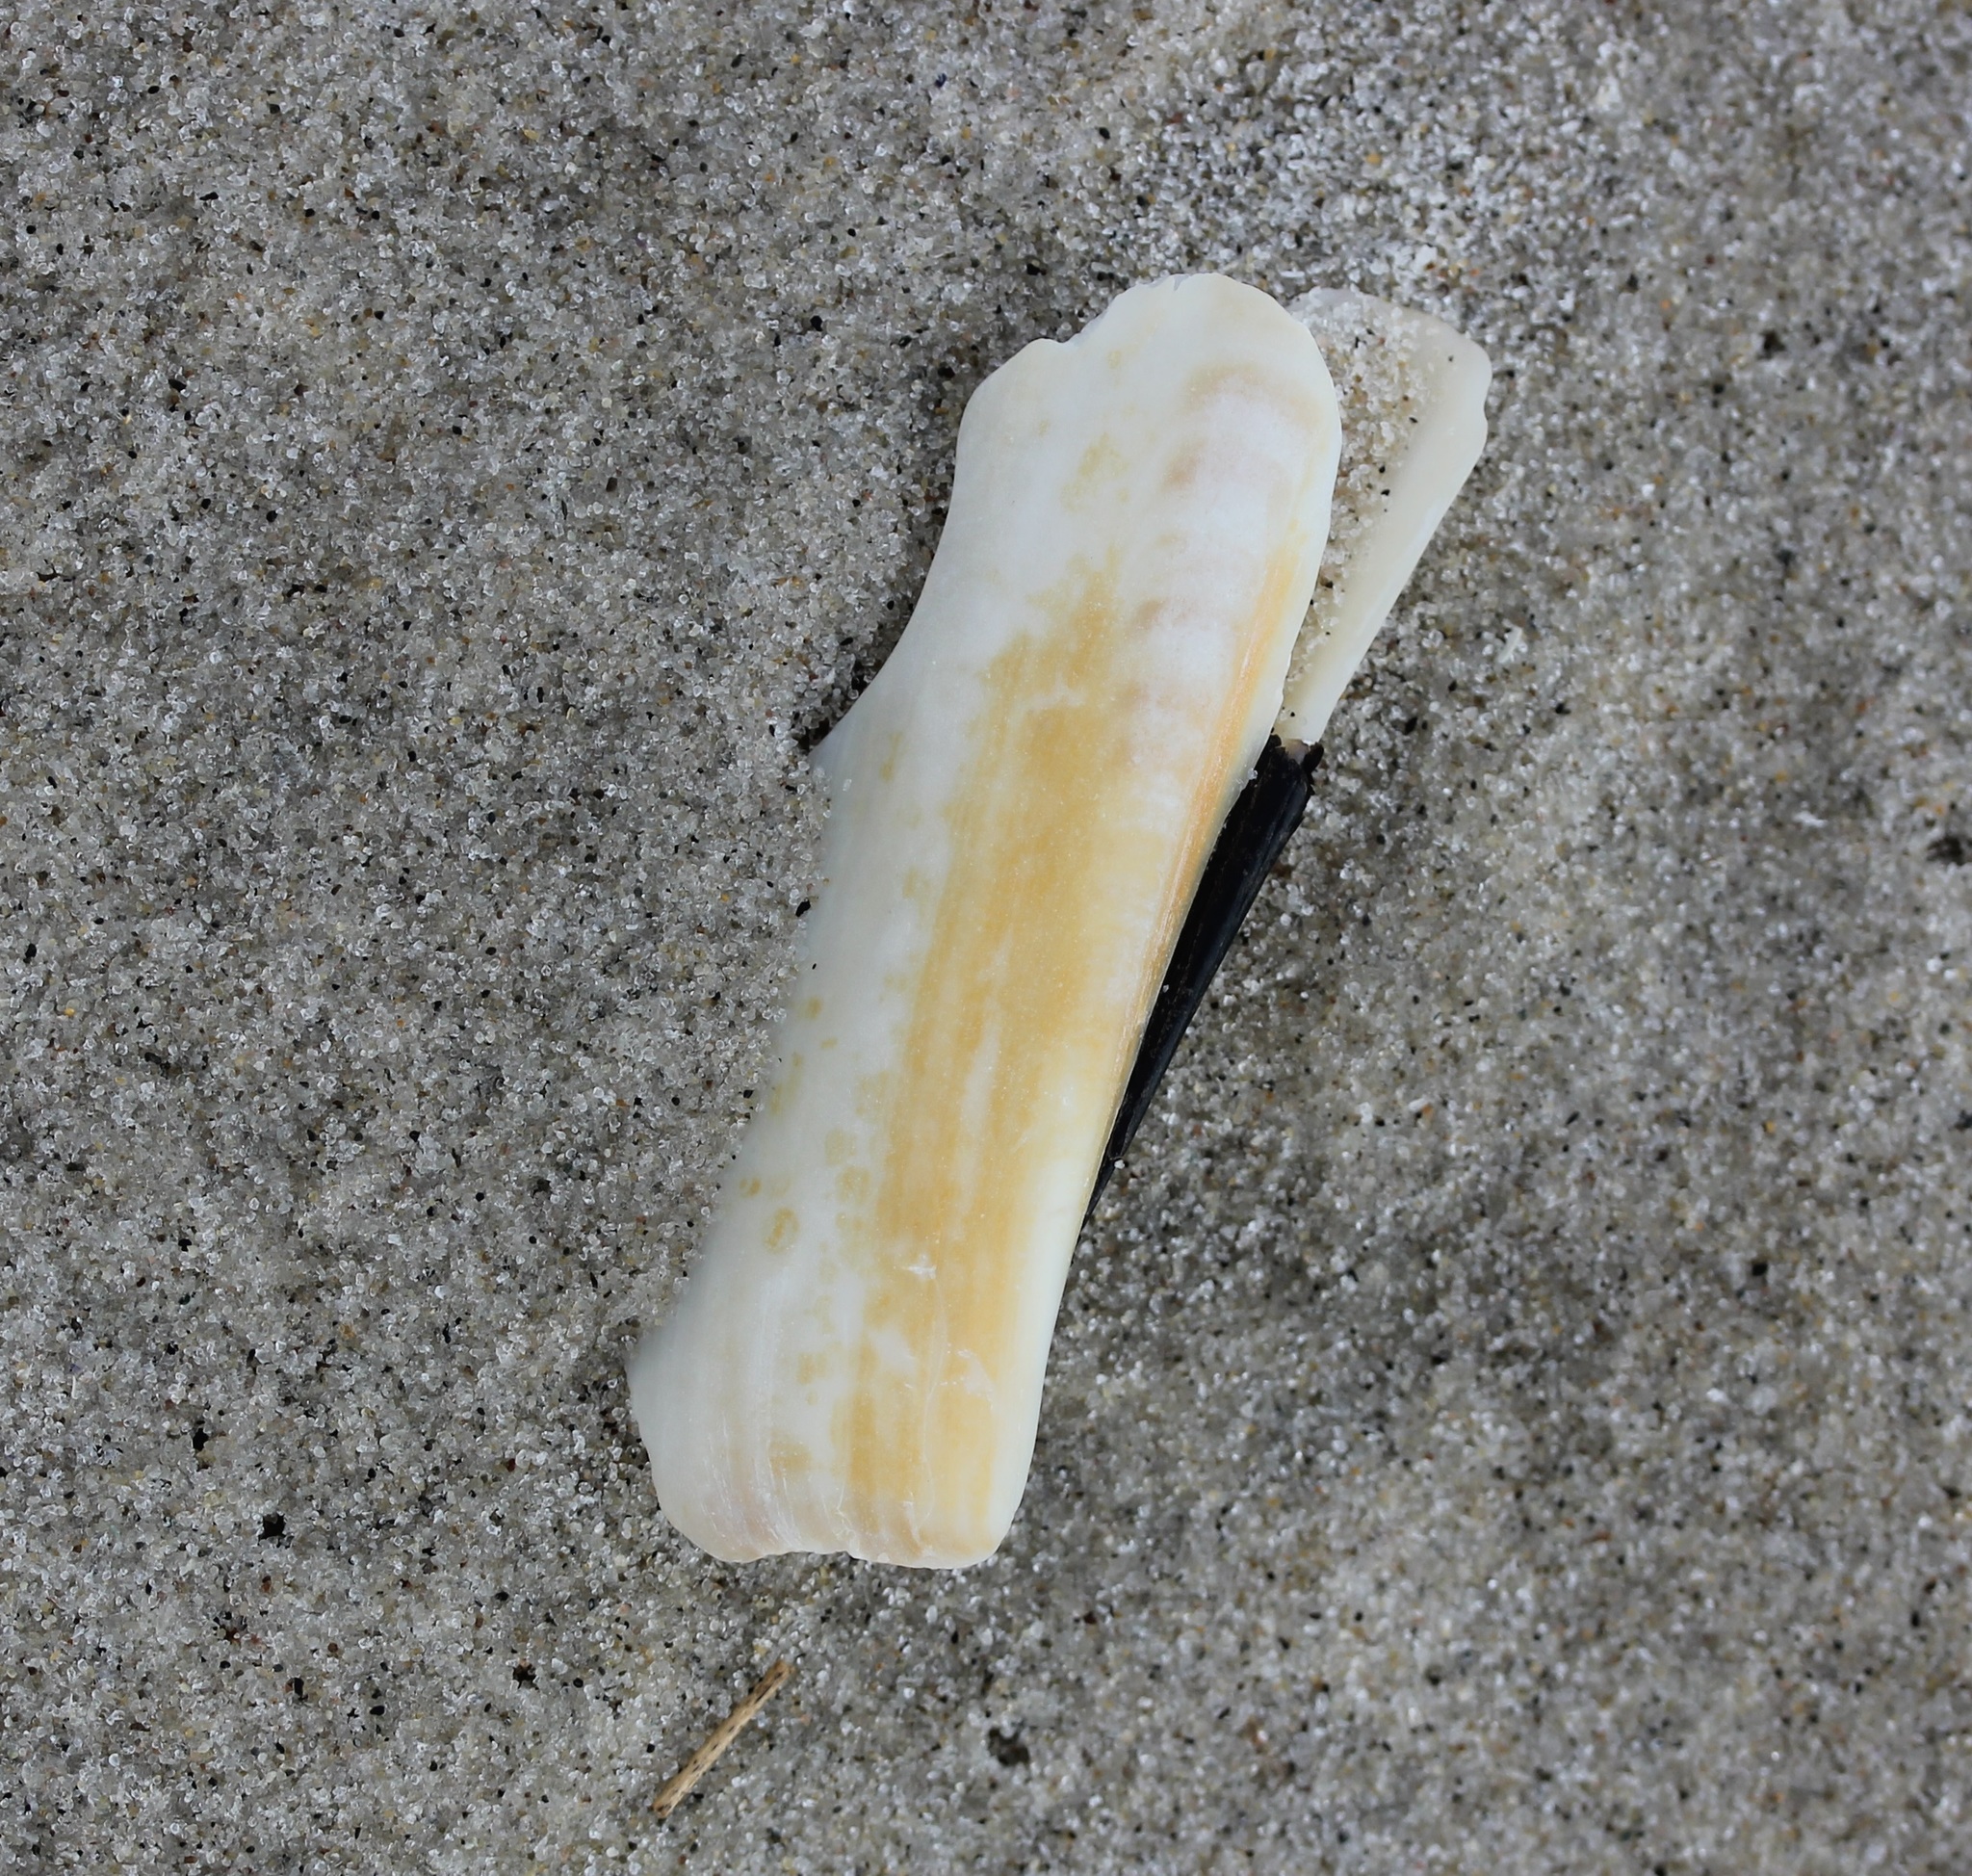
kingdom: Animalia
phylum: Mollusca
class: Bivalvia
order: Adapedonta
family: Pharidae
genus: Ensis
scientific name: Ensis leei
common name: American jack knife clam
